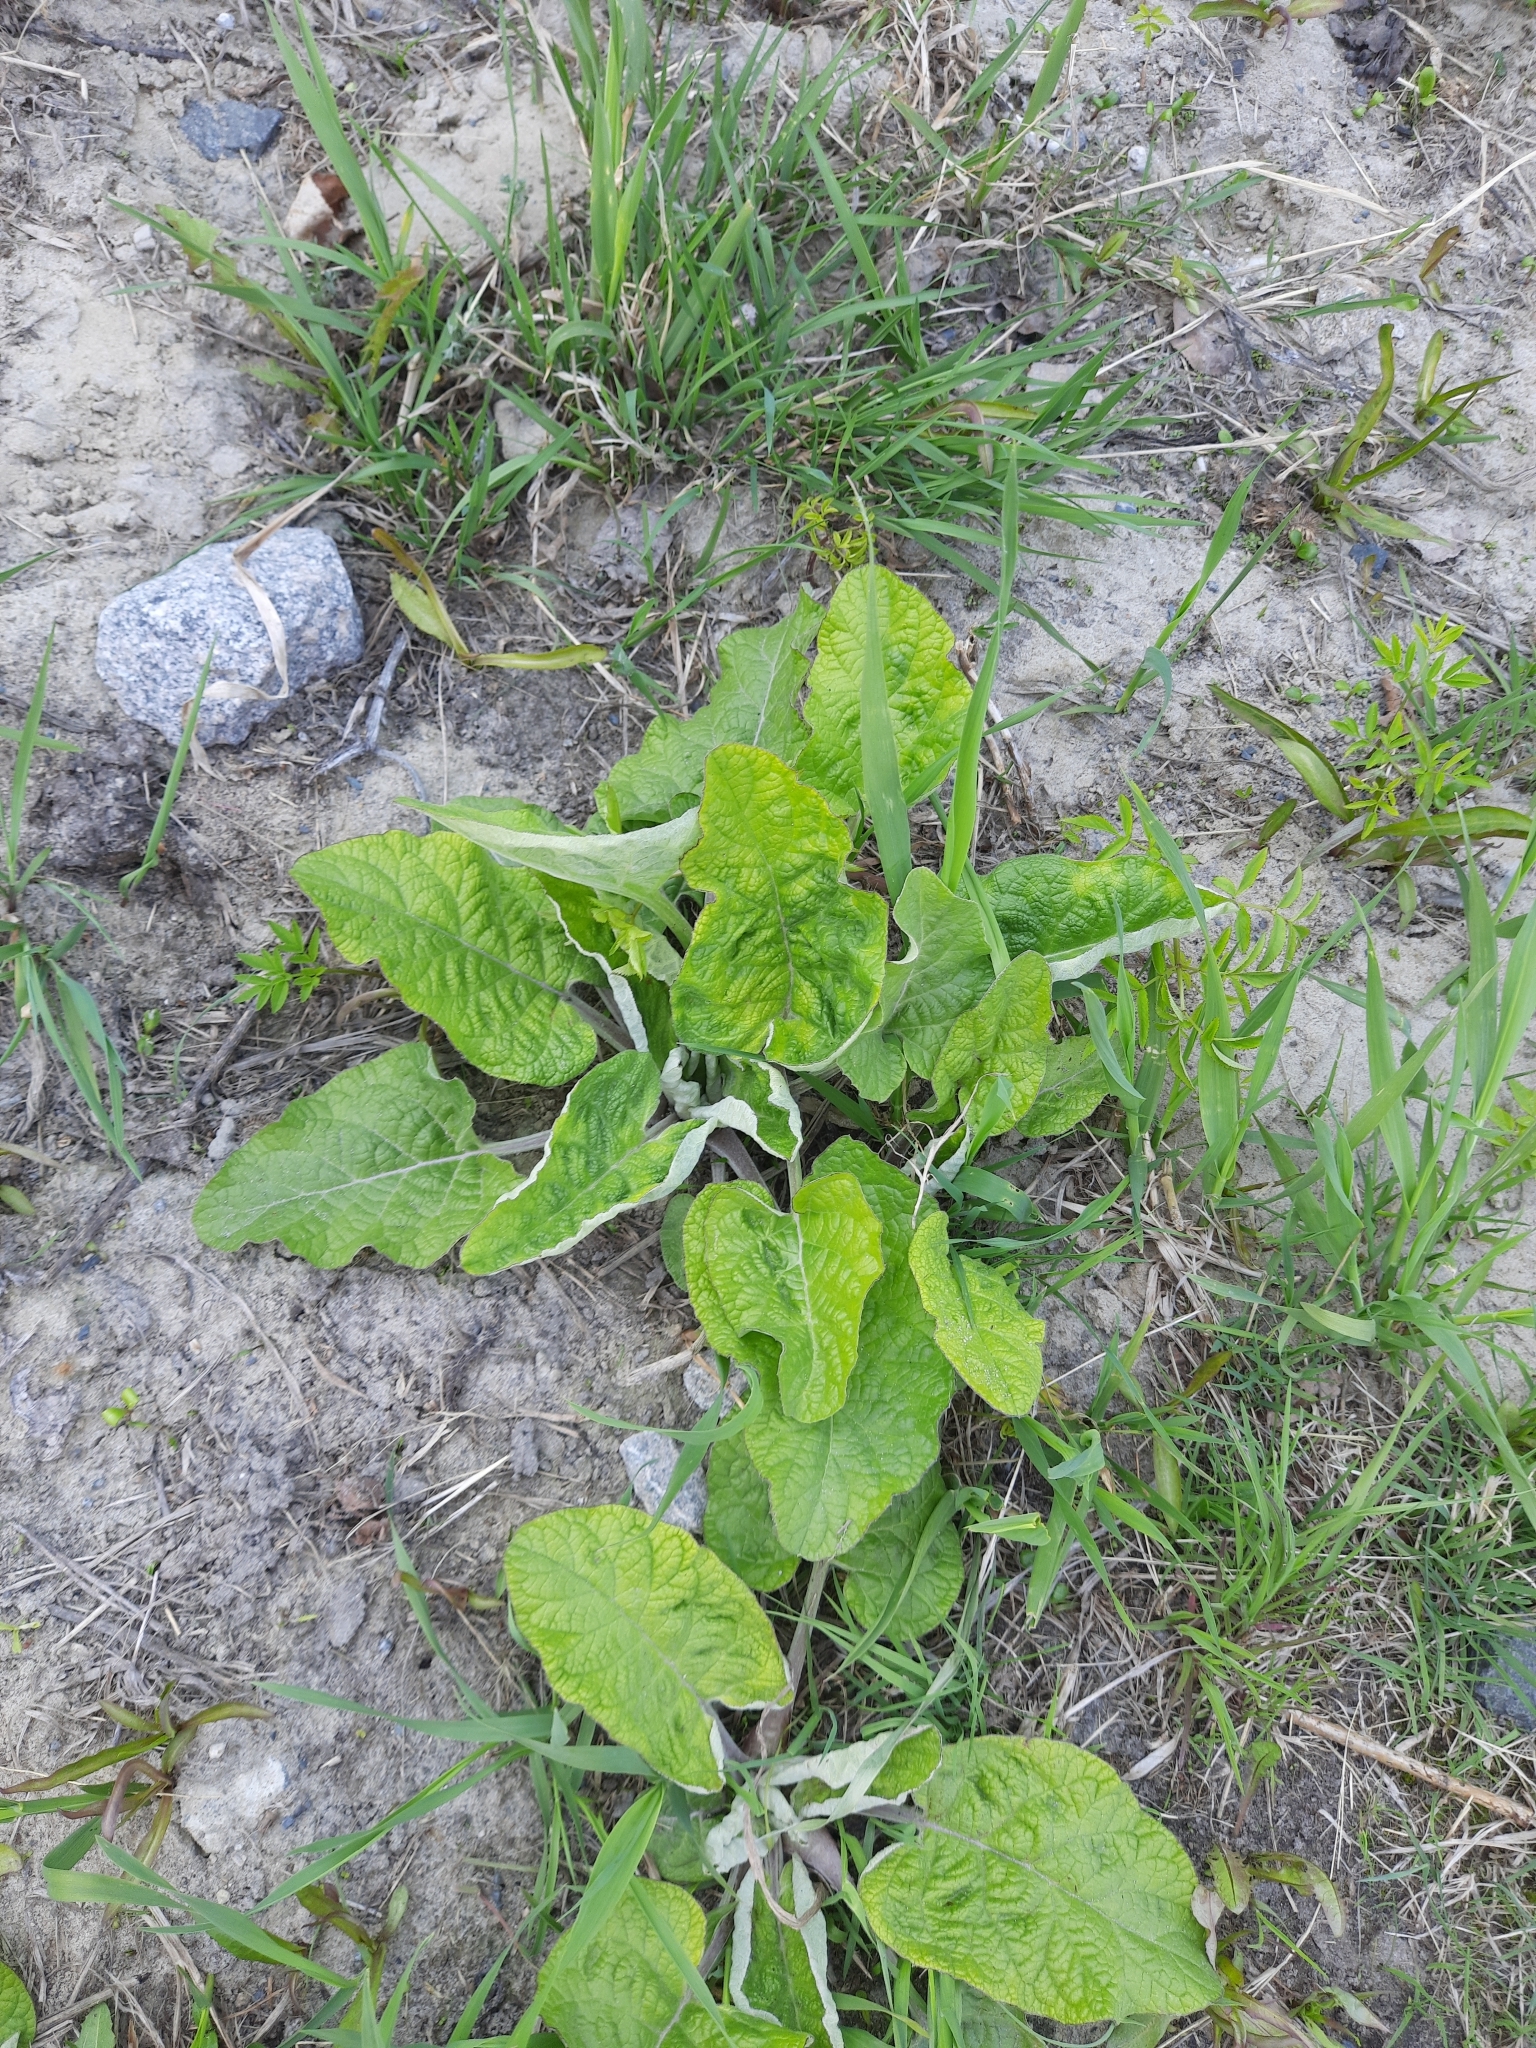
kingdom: Plantae
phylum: Tracheophyta
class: Magnoliopsida
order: Asterales
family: Asteraceae
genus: Arctium
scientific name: Arctium tomentosum
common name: Woolly burdock
